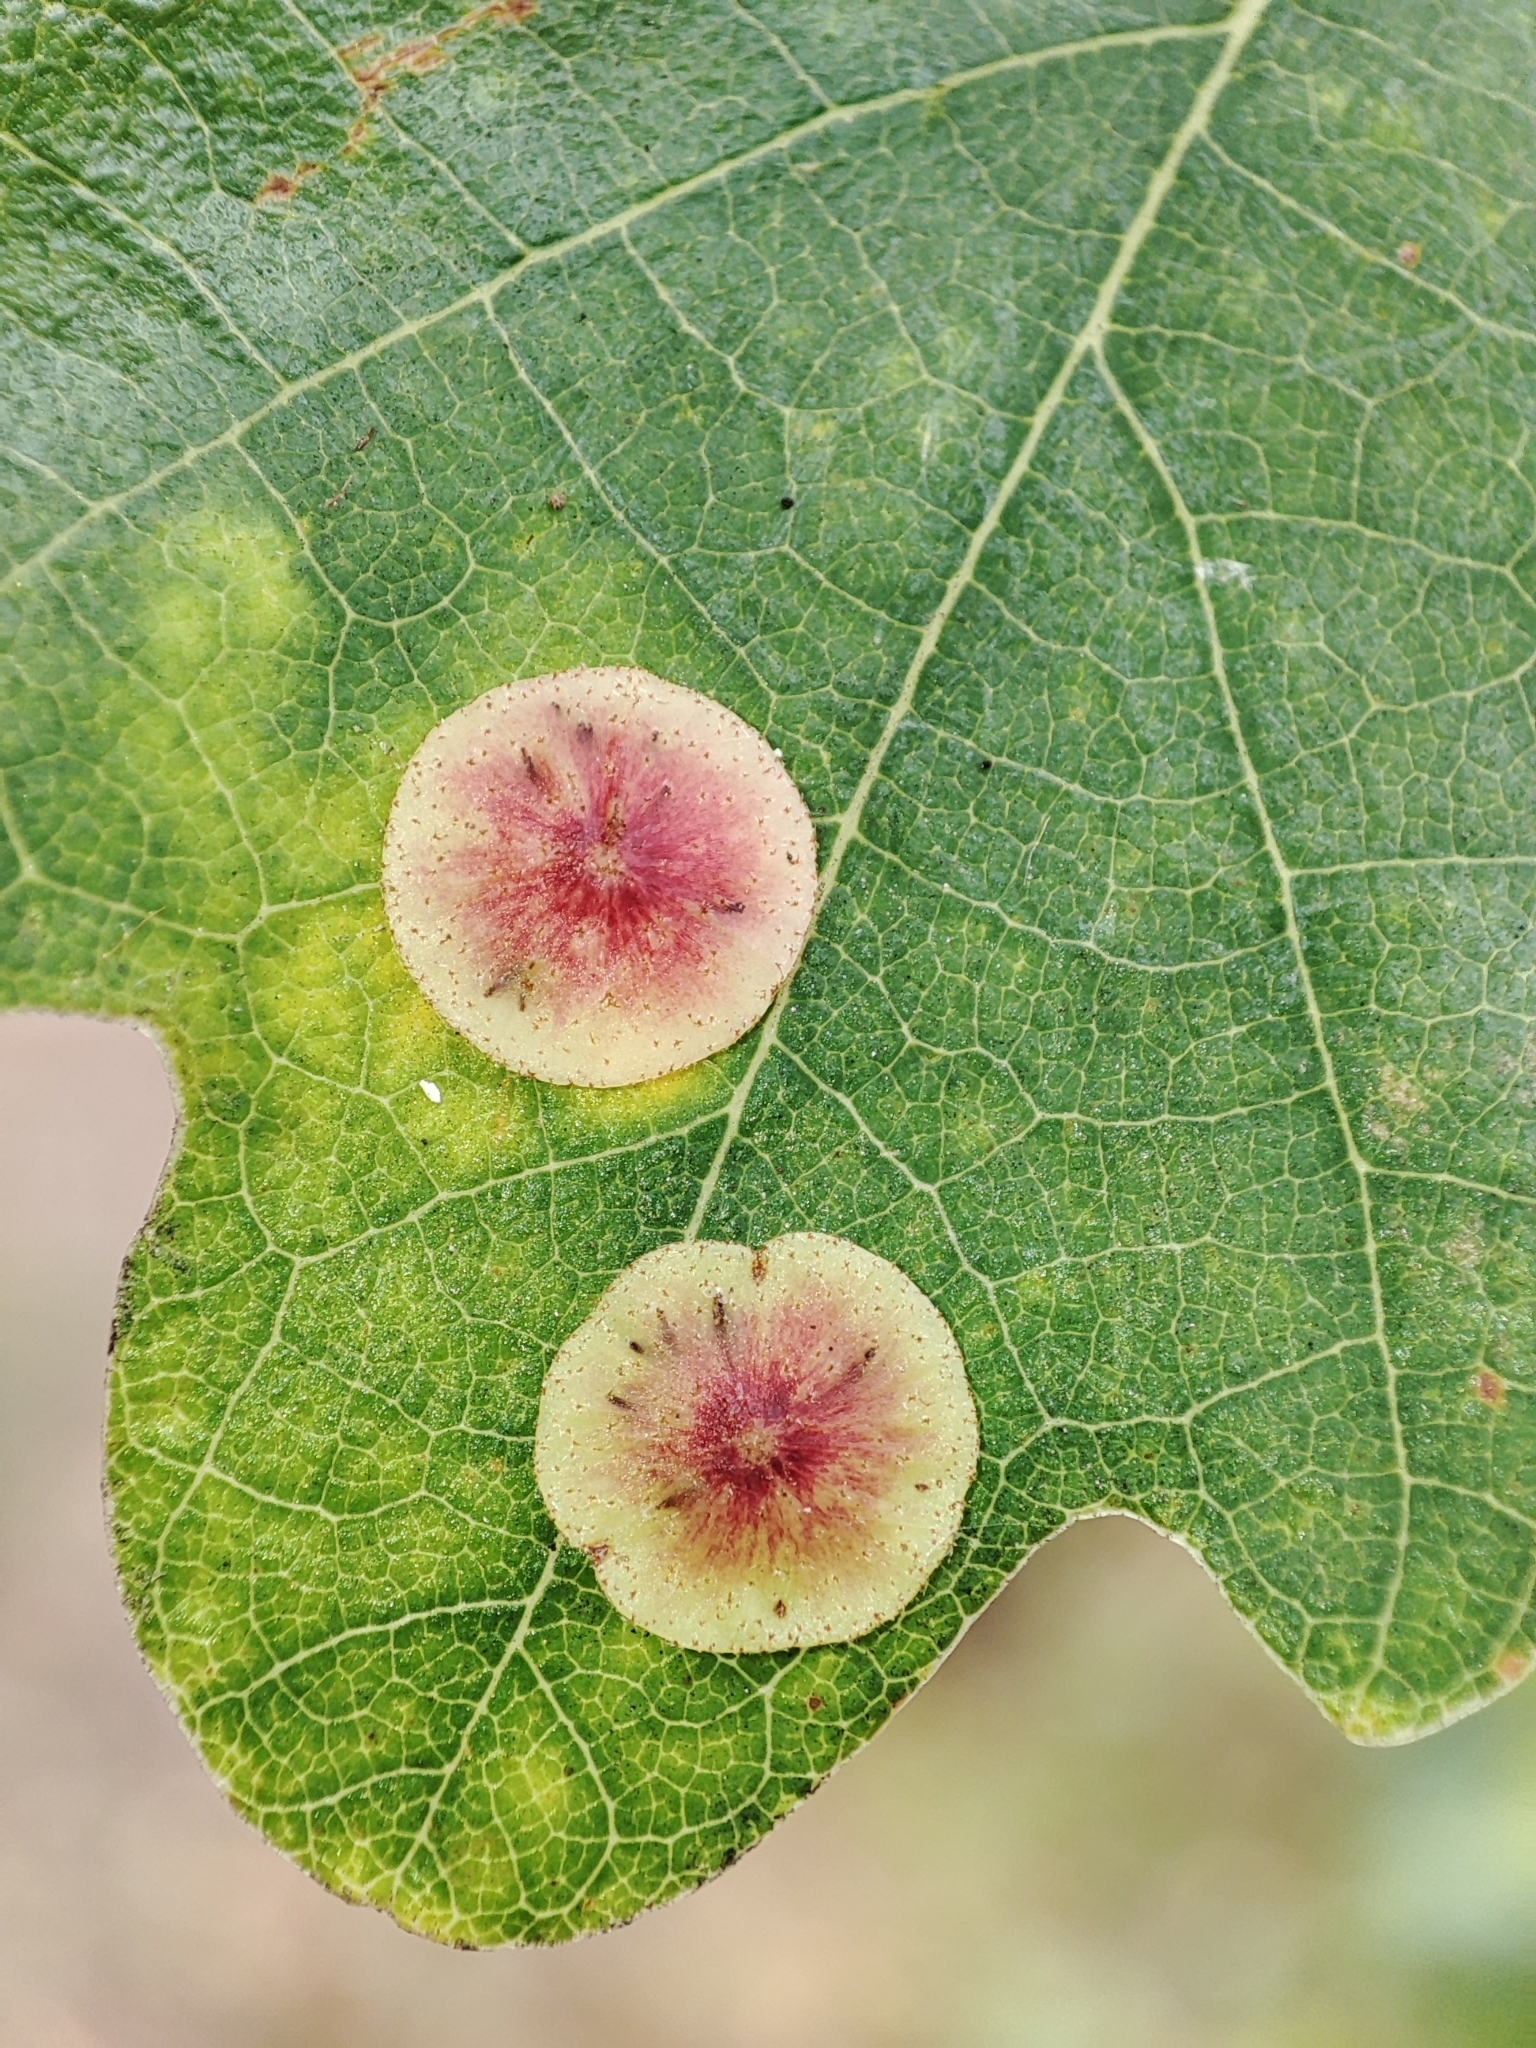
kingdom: Animalia
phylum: Arthropoda
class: Insecta
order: Hymenoptera
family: Cynipidae
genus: Neuroterus
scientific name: Neuroterus albipes
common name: Smooth spangle gall
